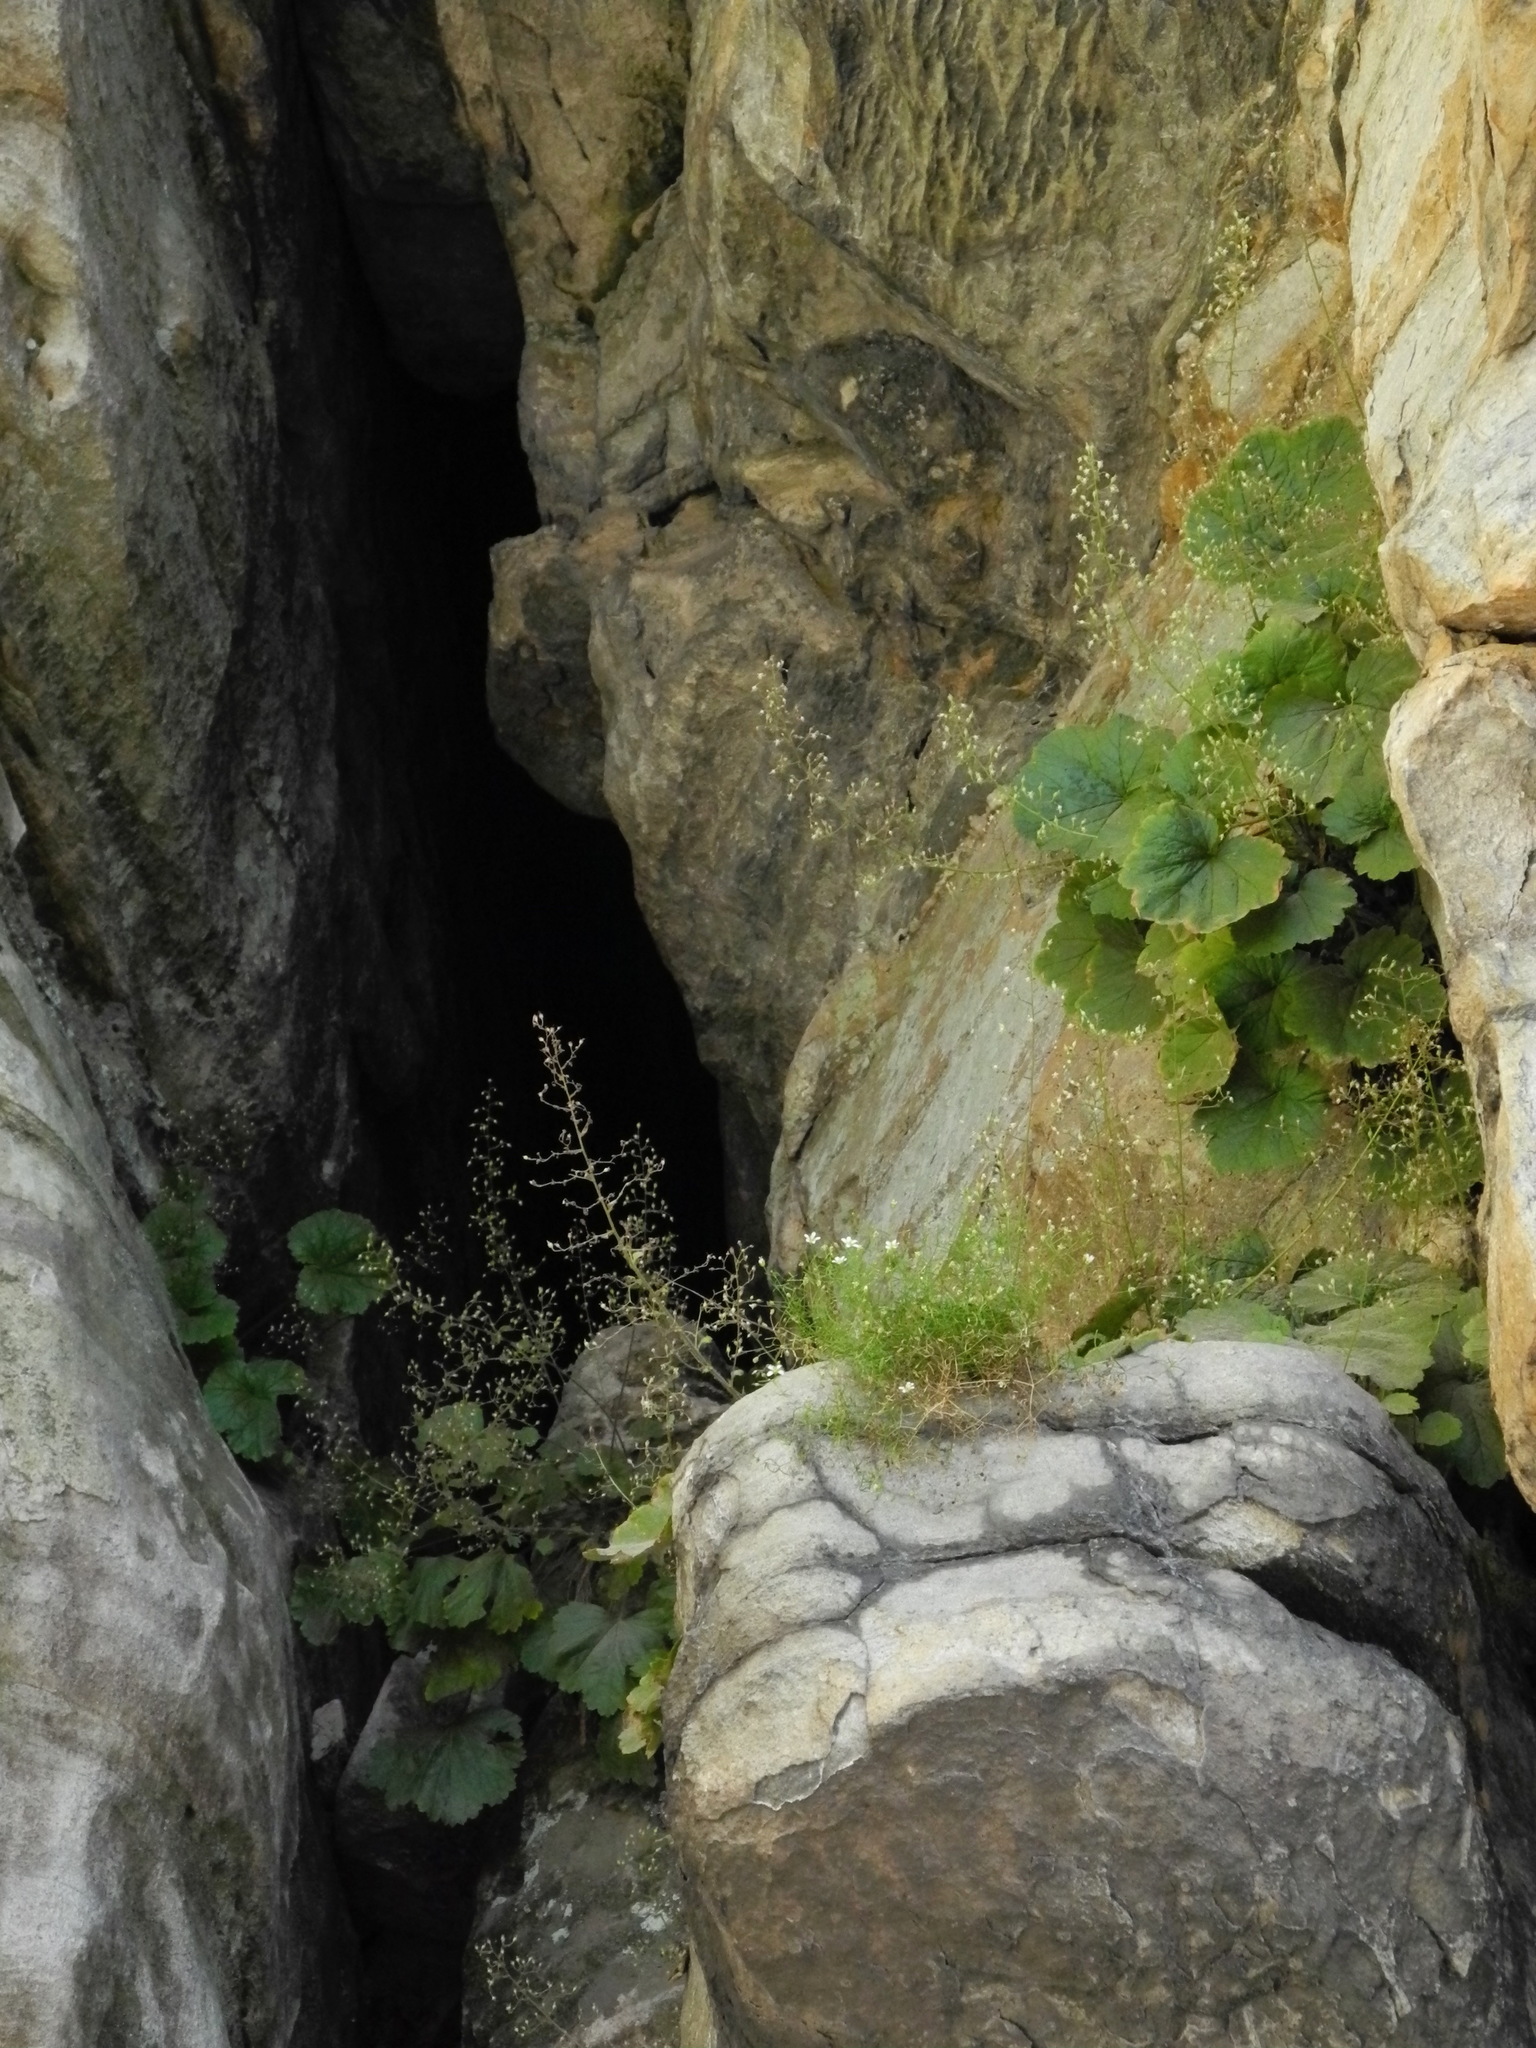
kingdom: Plantae
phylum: Tracheophyta
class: Magnoliopsida
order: Caryophyllales
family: Caryophyllaceae
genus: Sabulina
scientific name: Sabulina michauxii
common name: Michaux's stitchwort
